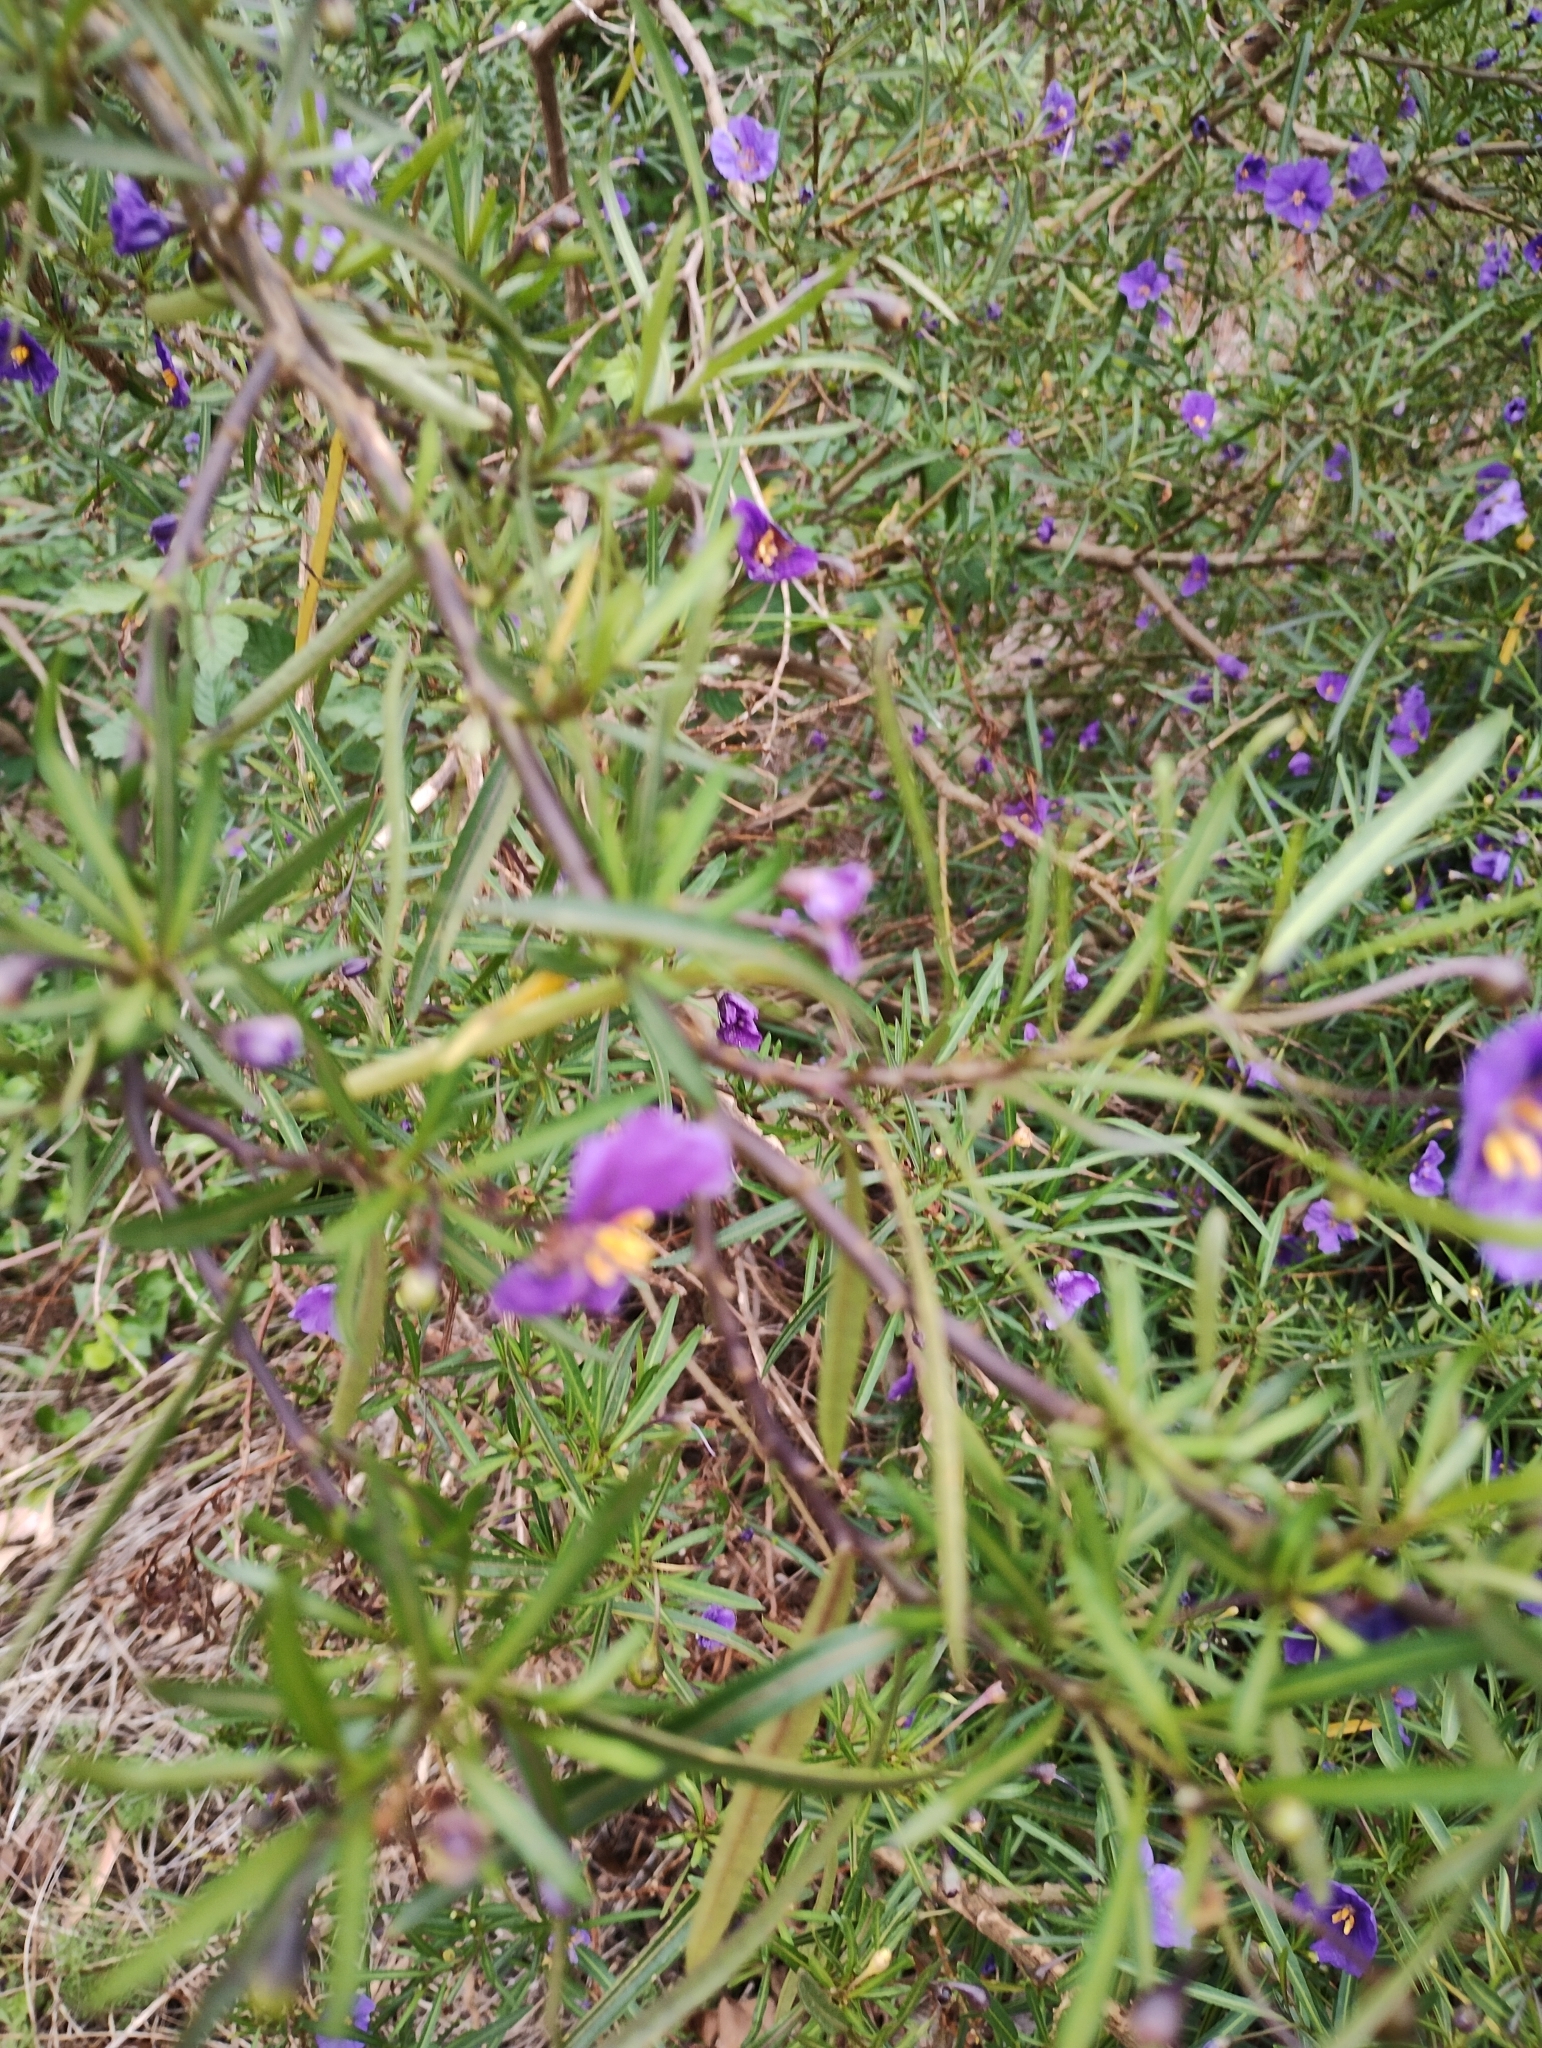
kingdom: Plantae
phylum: Tracheophyta
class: Magnoliopsida
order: Solanales
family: Solanaceae
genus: Solanum
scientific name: Solanum linearifolium
